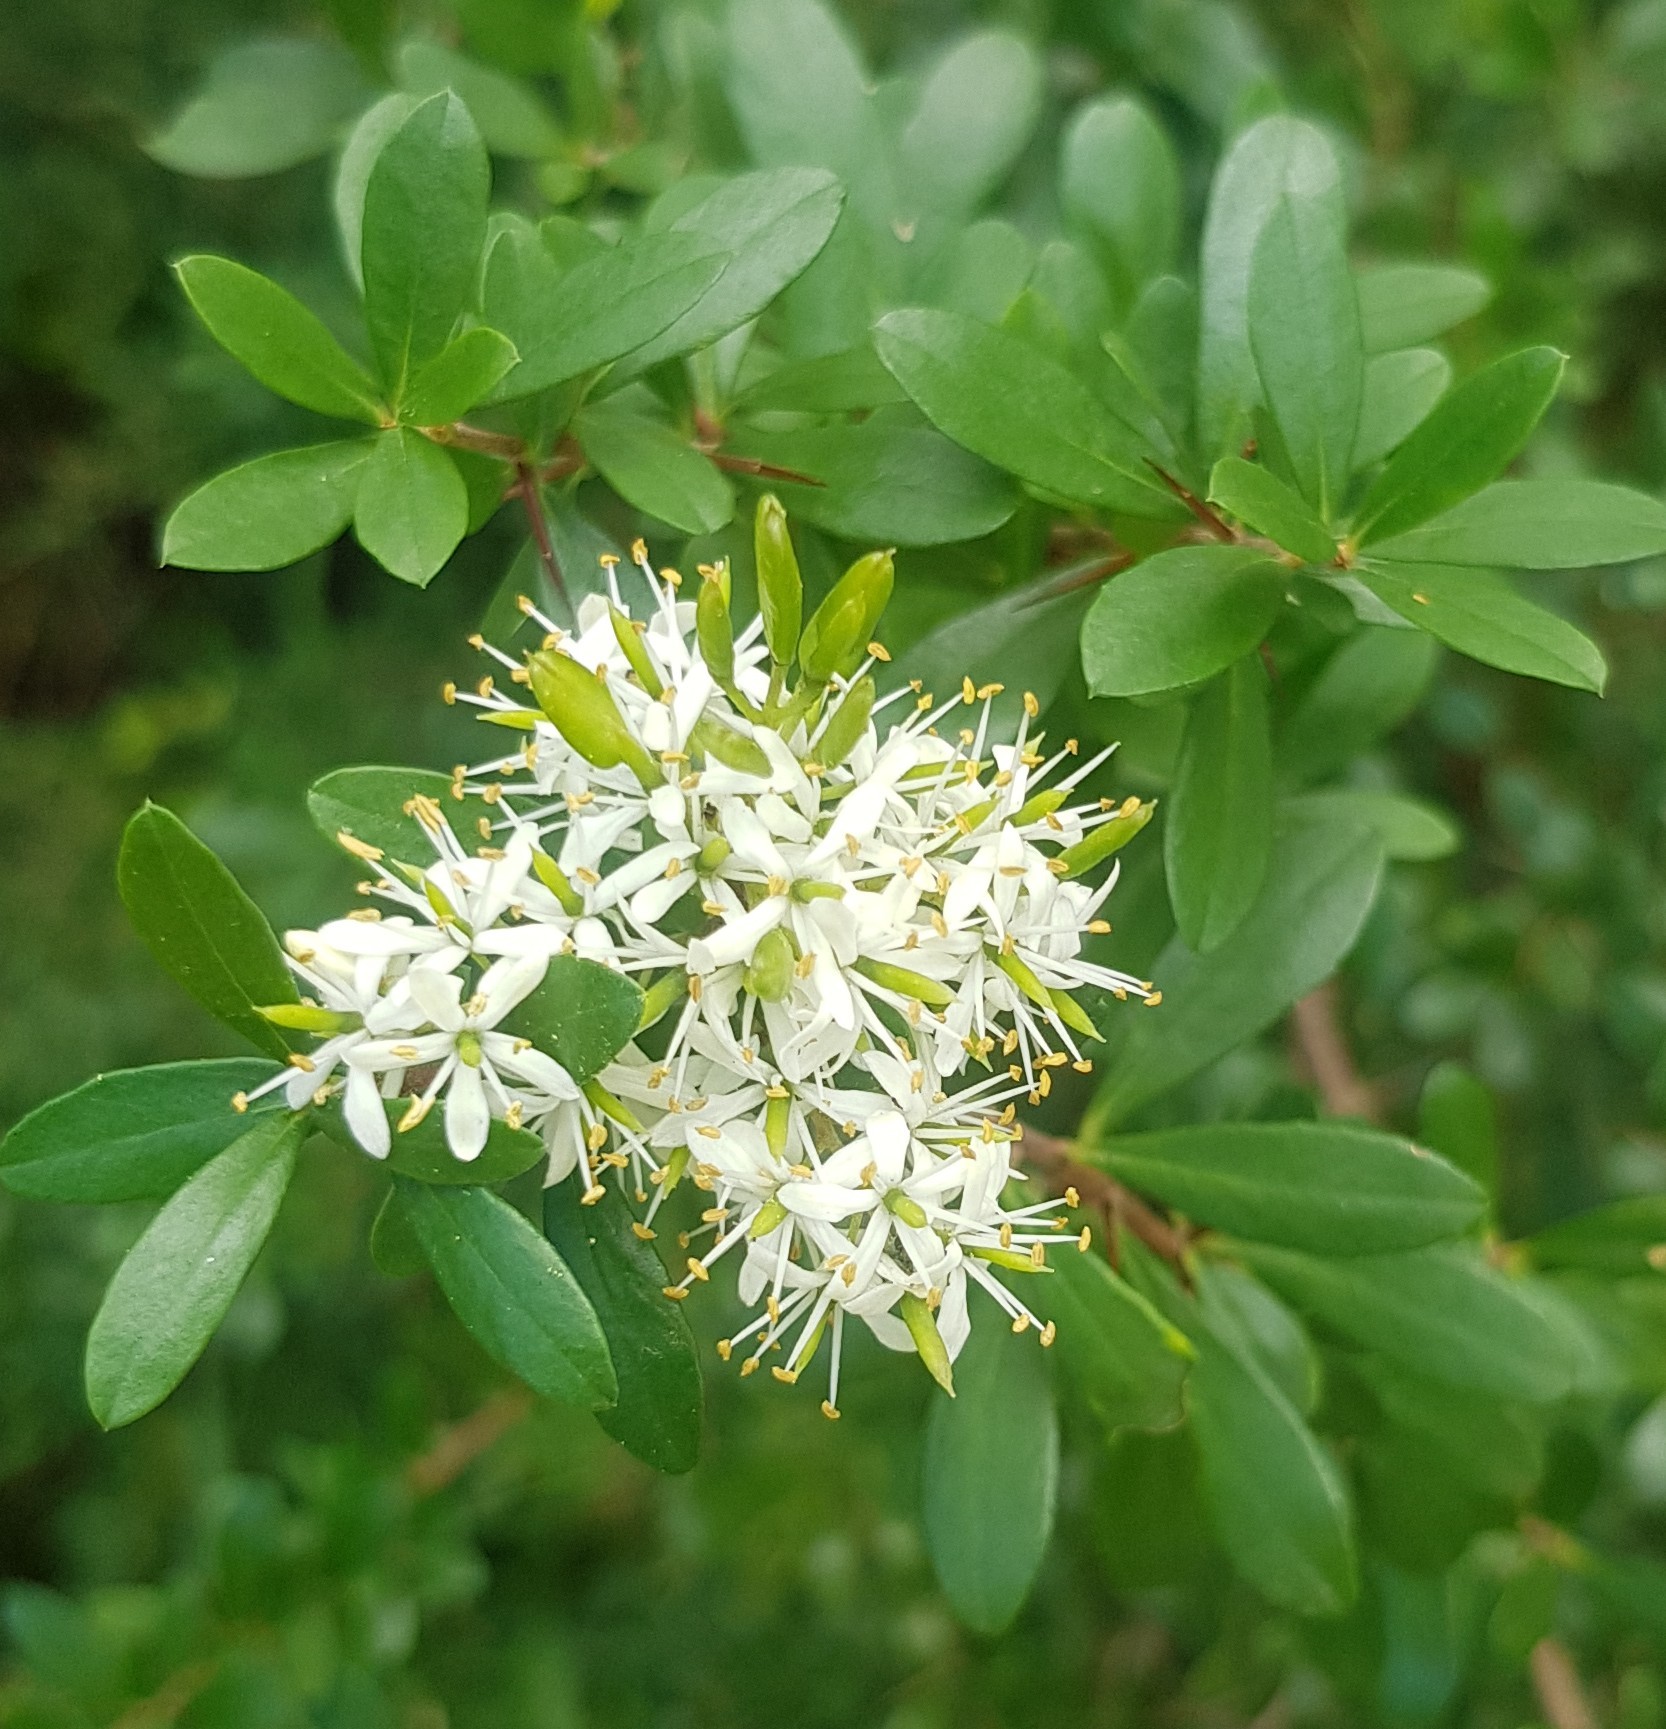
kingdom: Plantae
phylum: Tracheophyta
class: Magnoliopsida
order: Apiales
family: Pittosporaceae
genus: Bursaria
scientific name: Bursaria spinosa
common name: Australian blackthorn
